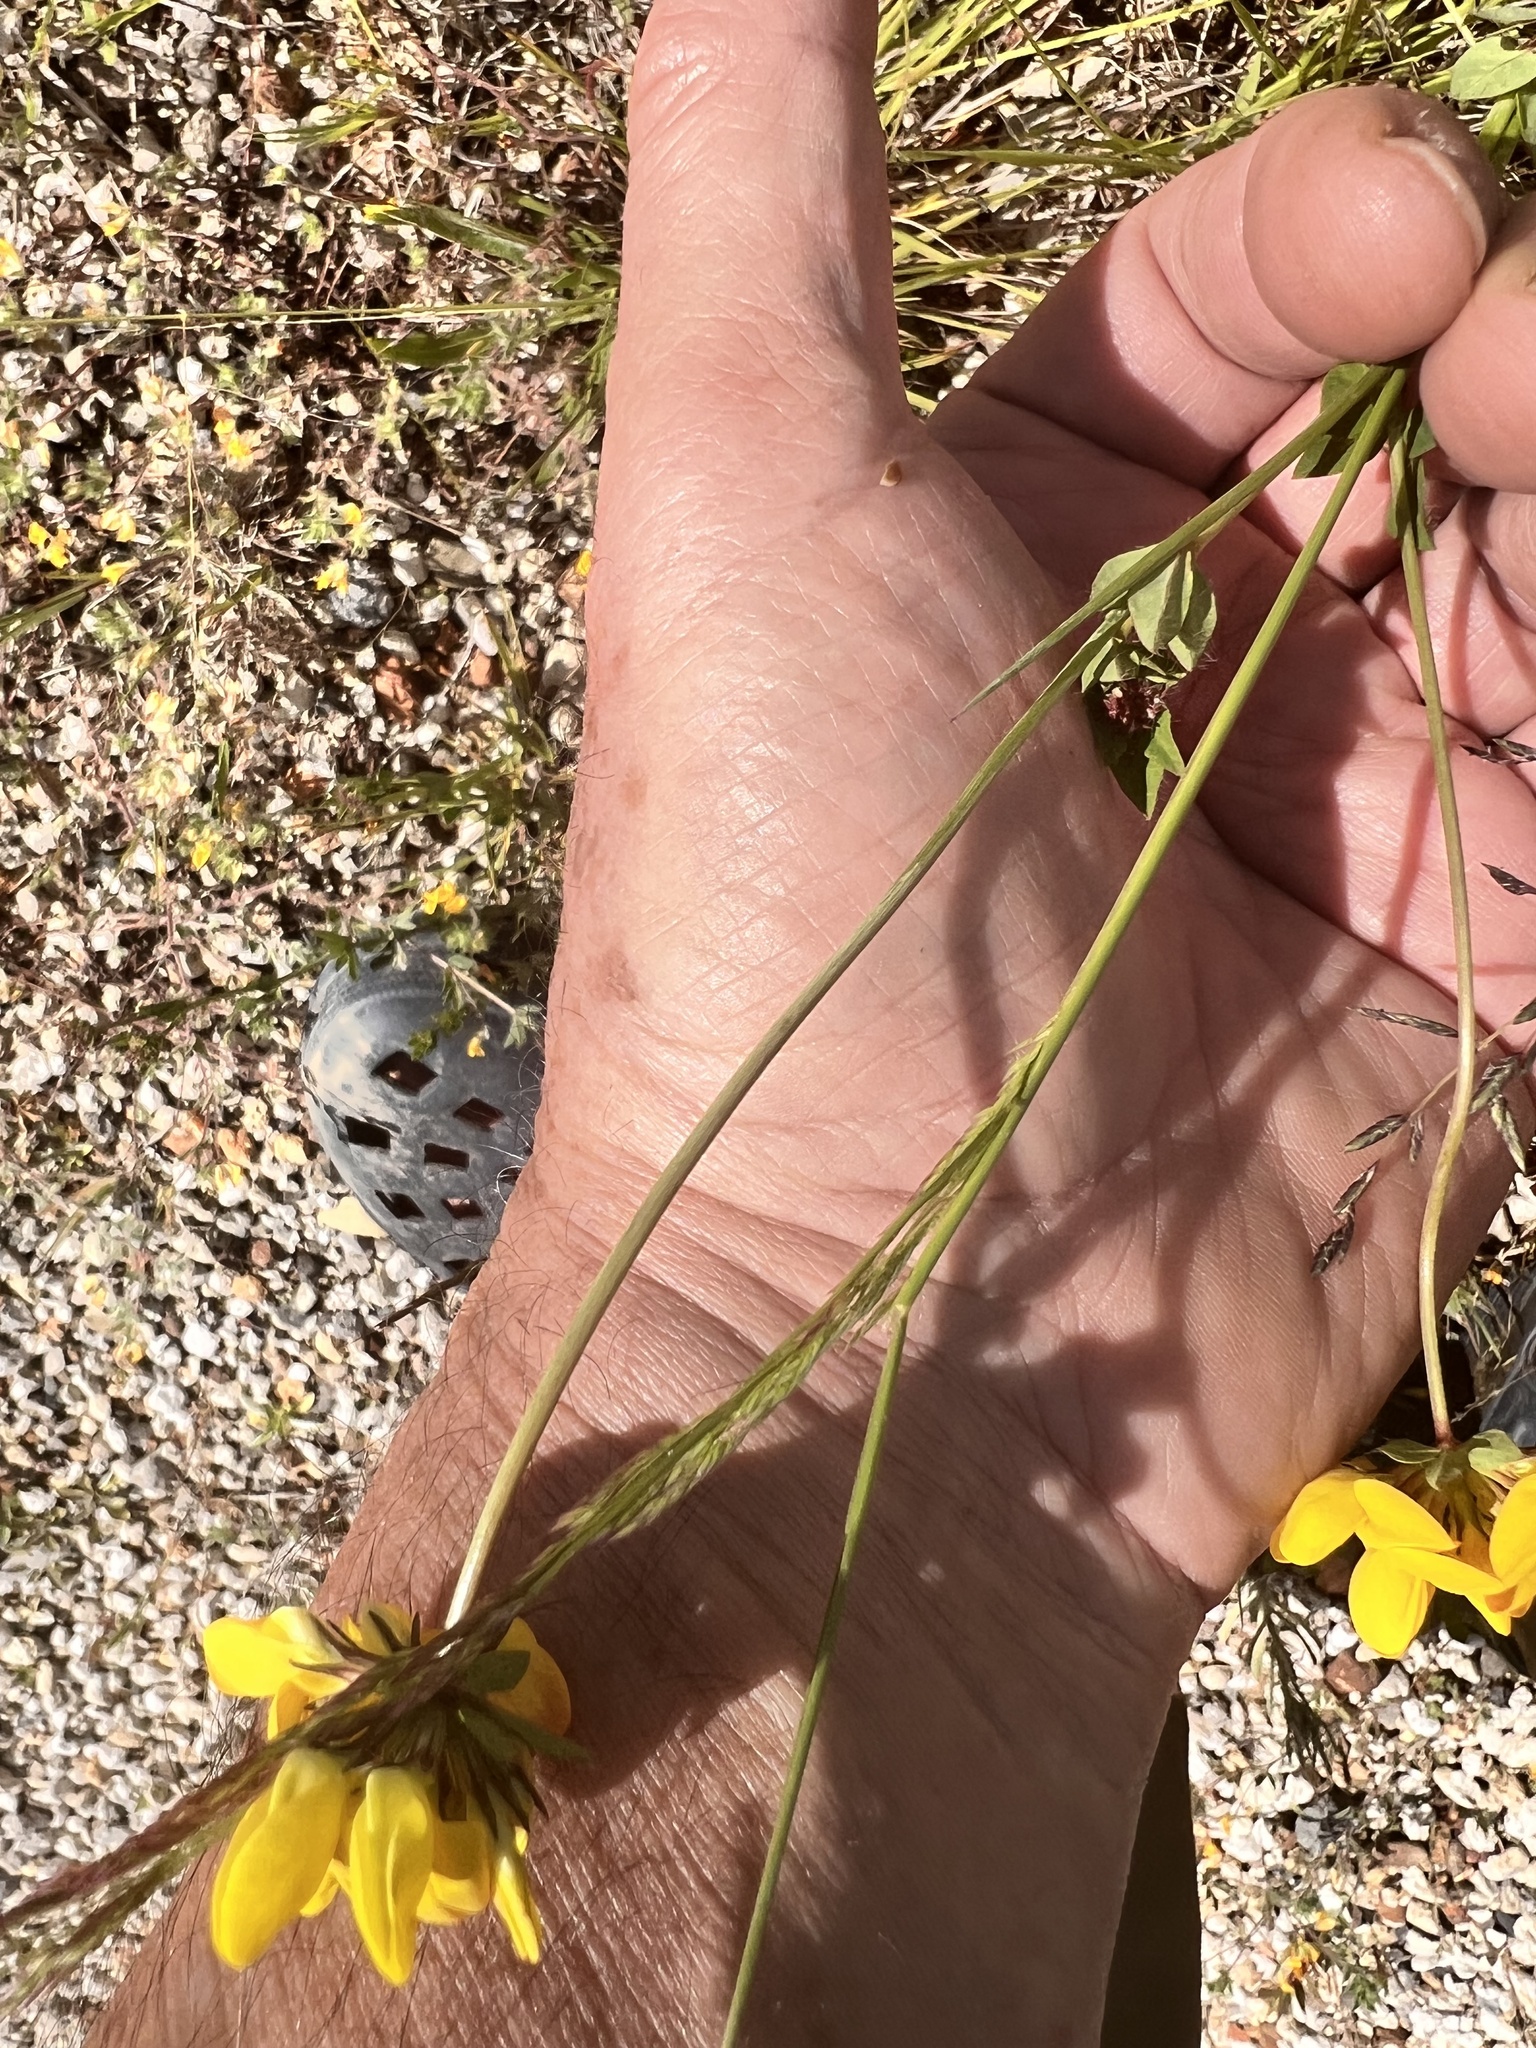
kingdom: Plantae
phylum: Tracheophyta
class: Magnoliopsida
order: Fabales
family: Fabaceae
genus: Lotus
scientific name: Lotus pedunculatus
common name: Greater birdsfoot-trefoil
